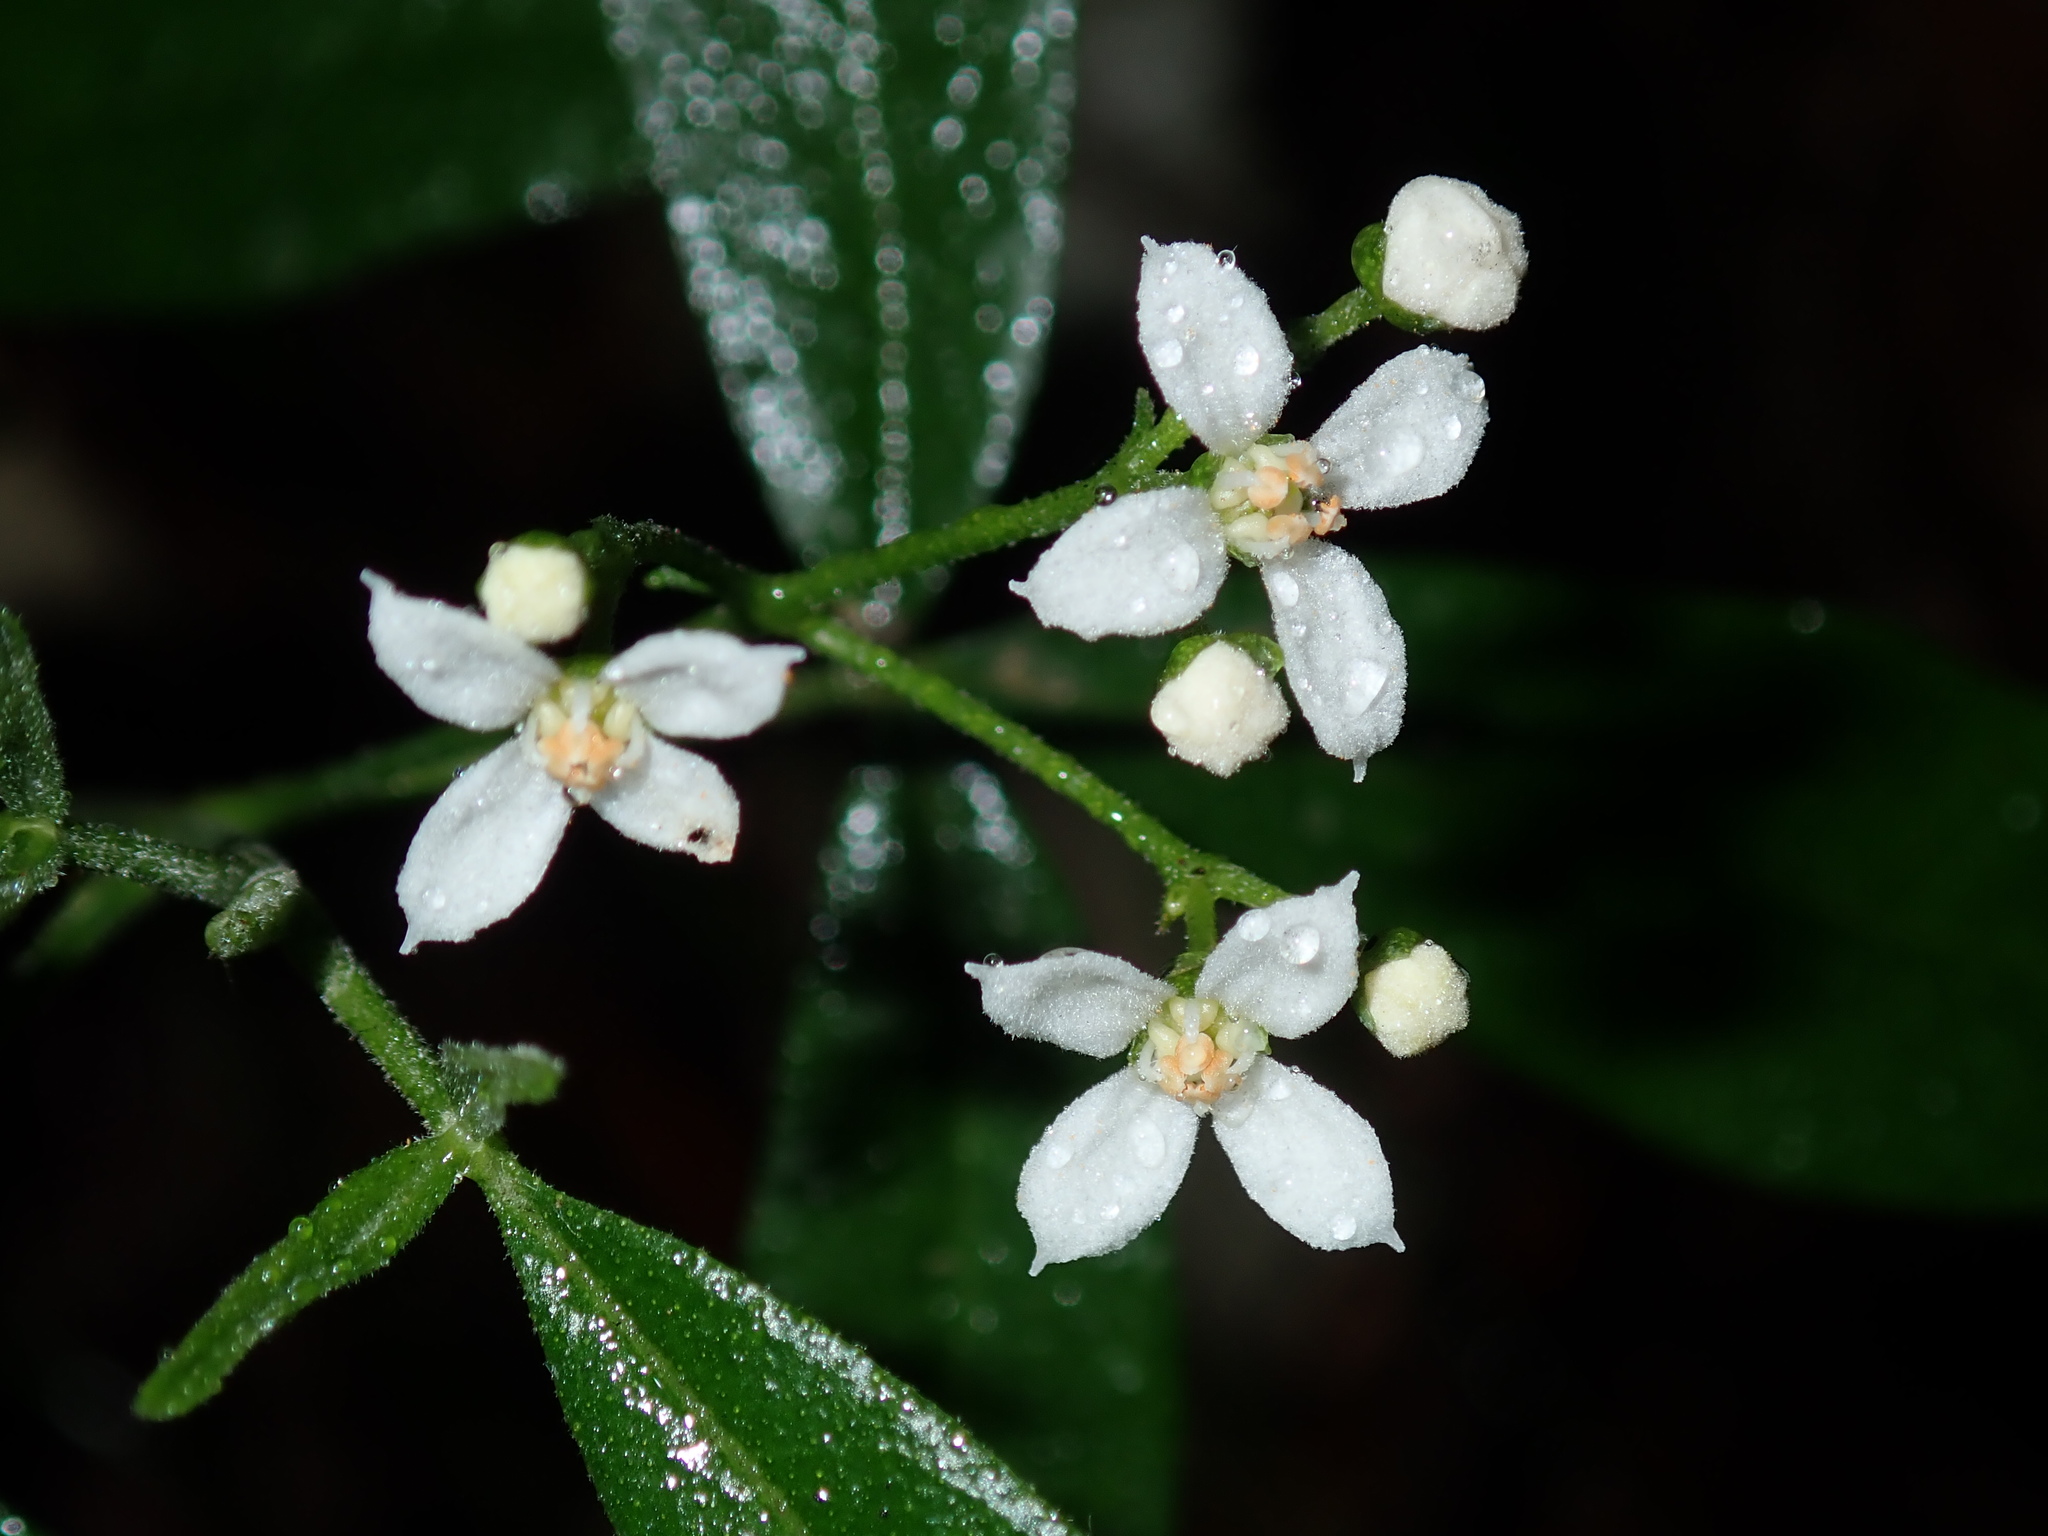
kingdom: Plantae
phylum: Tracheophyta
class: Magnoliopsida
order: Sapindales
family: Rutaceae
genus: Zieria
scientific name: Zieria smithii
